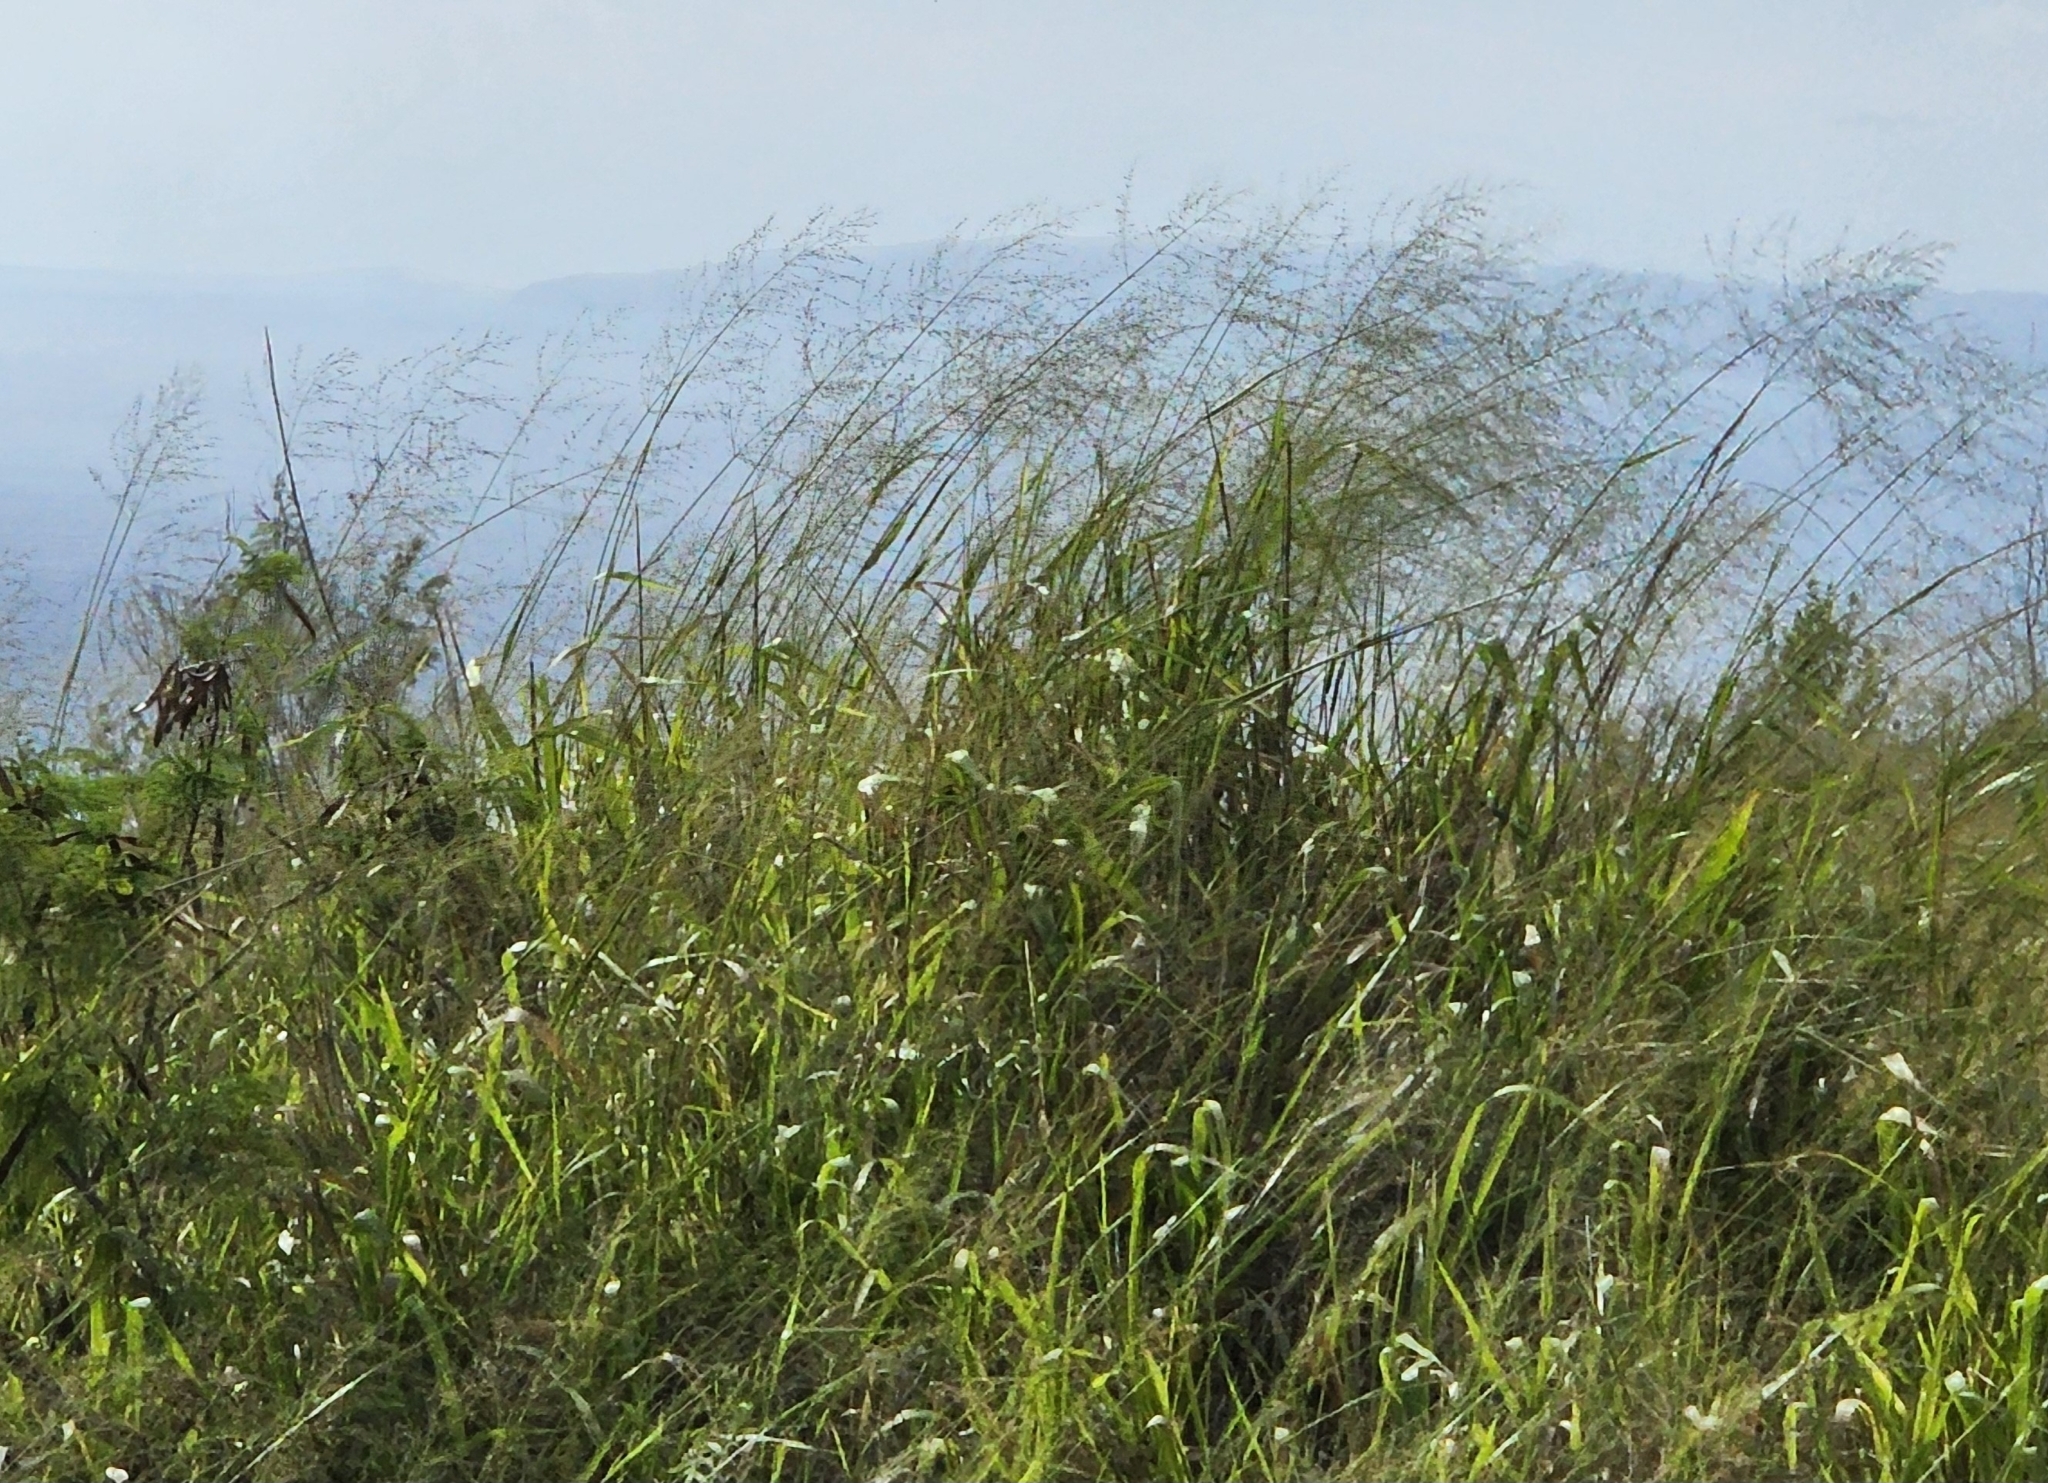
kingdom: Plantae
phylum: Tracheophyta
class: Liliopsida
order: Poales
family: Poaceae
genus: Megathyrsus
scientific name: Megathyrsus maximus
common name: Guineagrass
